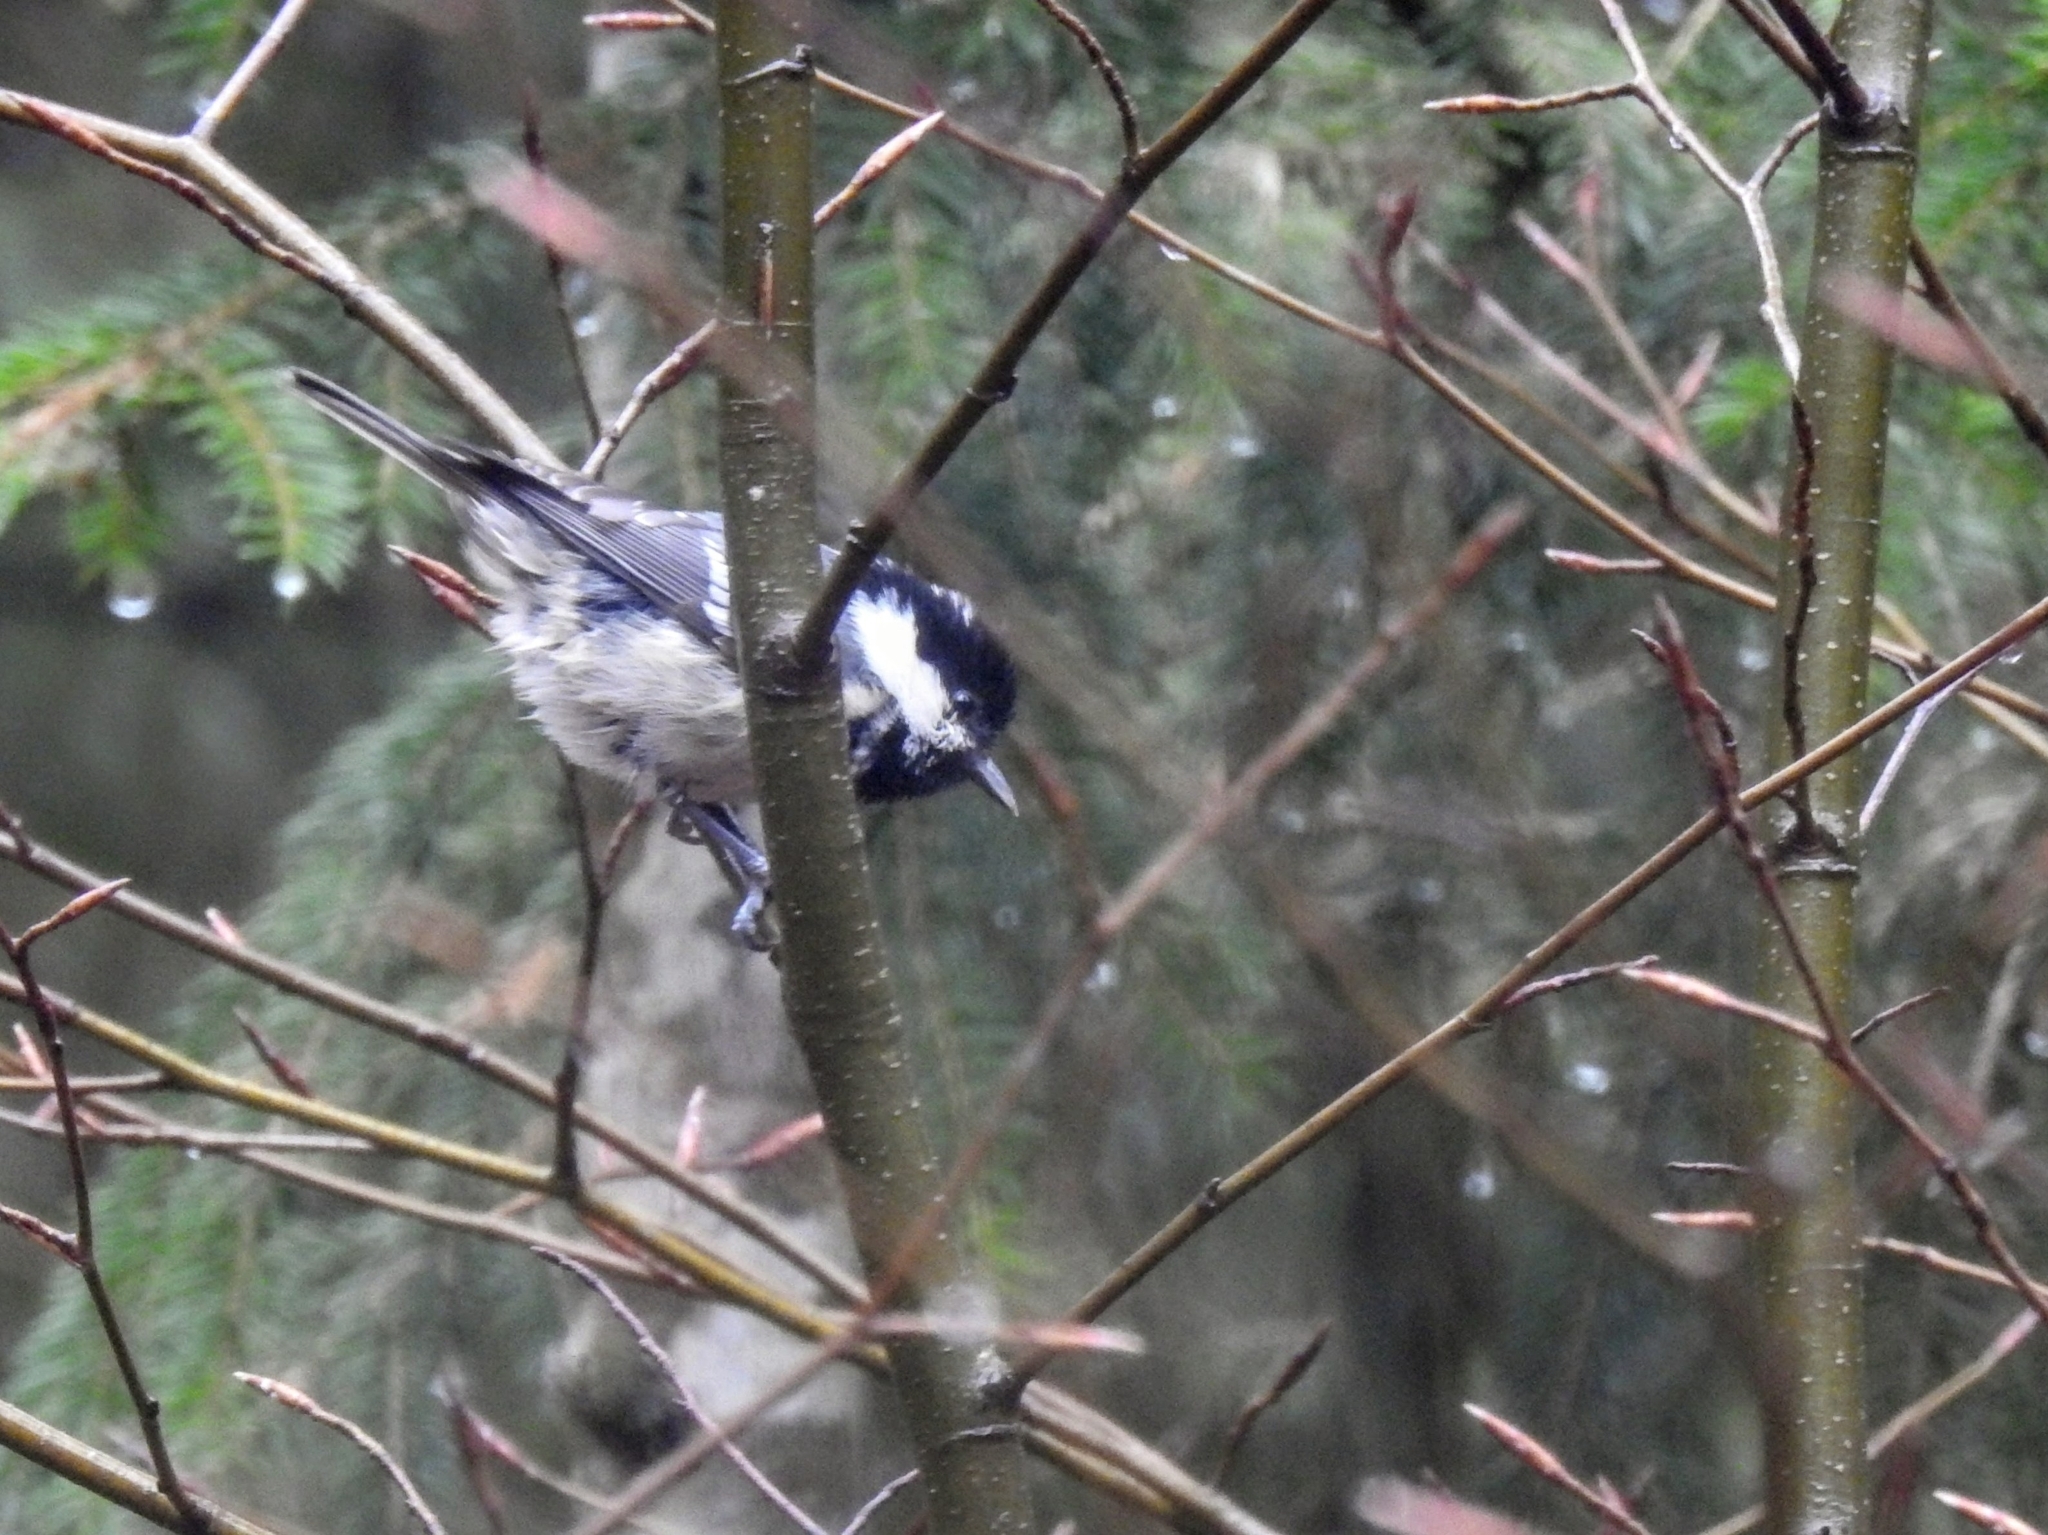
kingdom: Animalia
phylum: Chordata
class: Aves
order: Passeriformes
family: Paridae
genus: Periparus
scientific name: Periparus ater
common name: Coal tit
